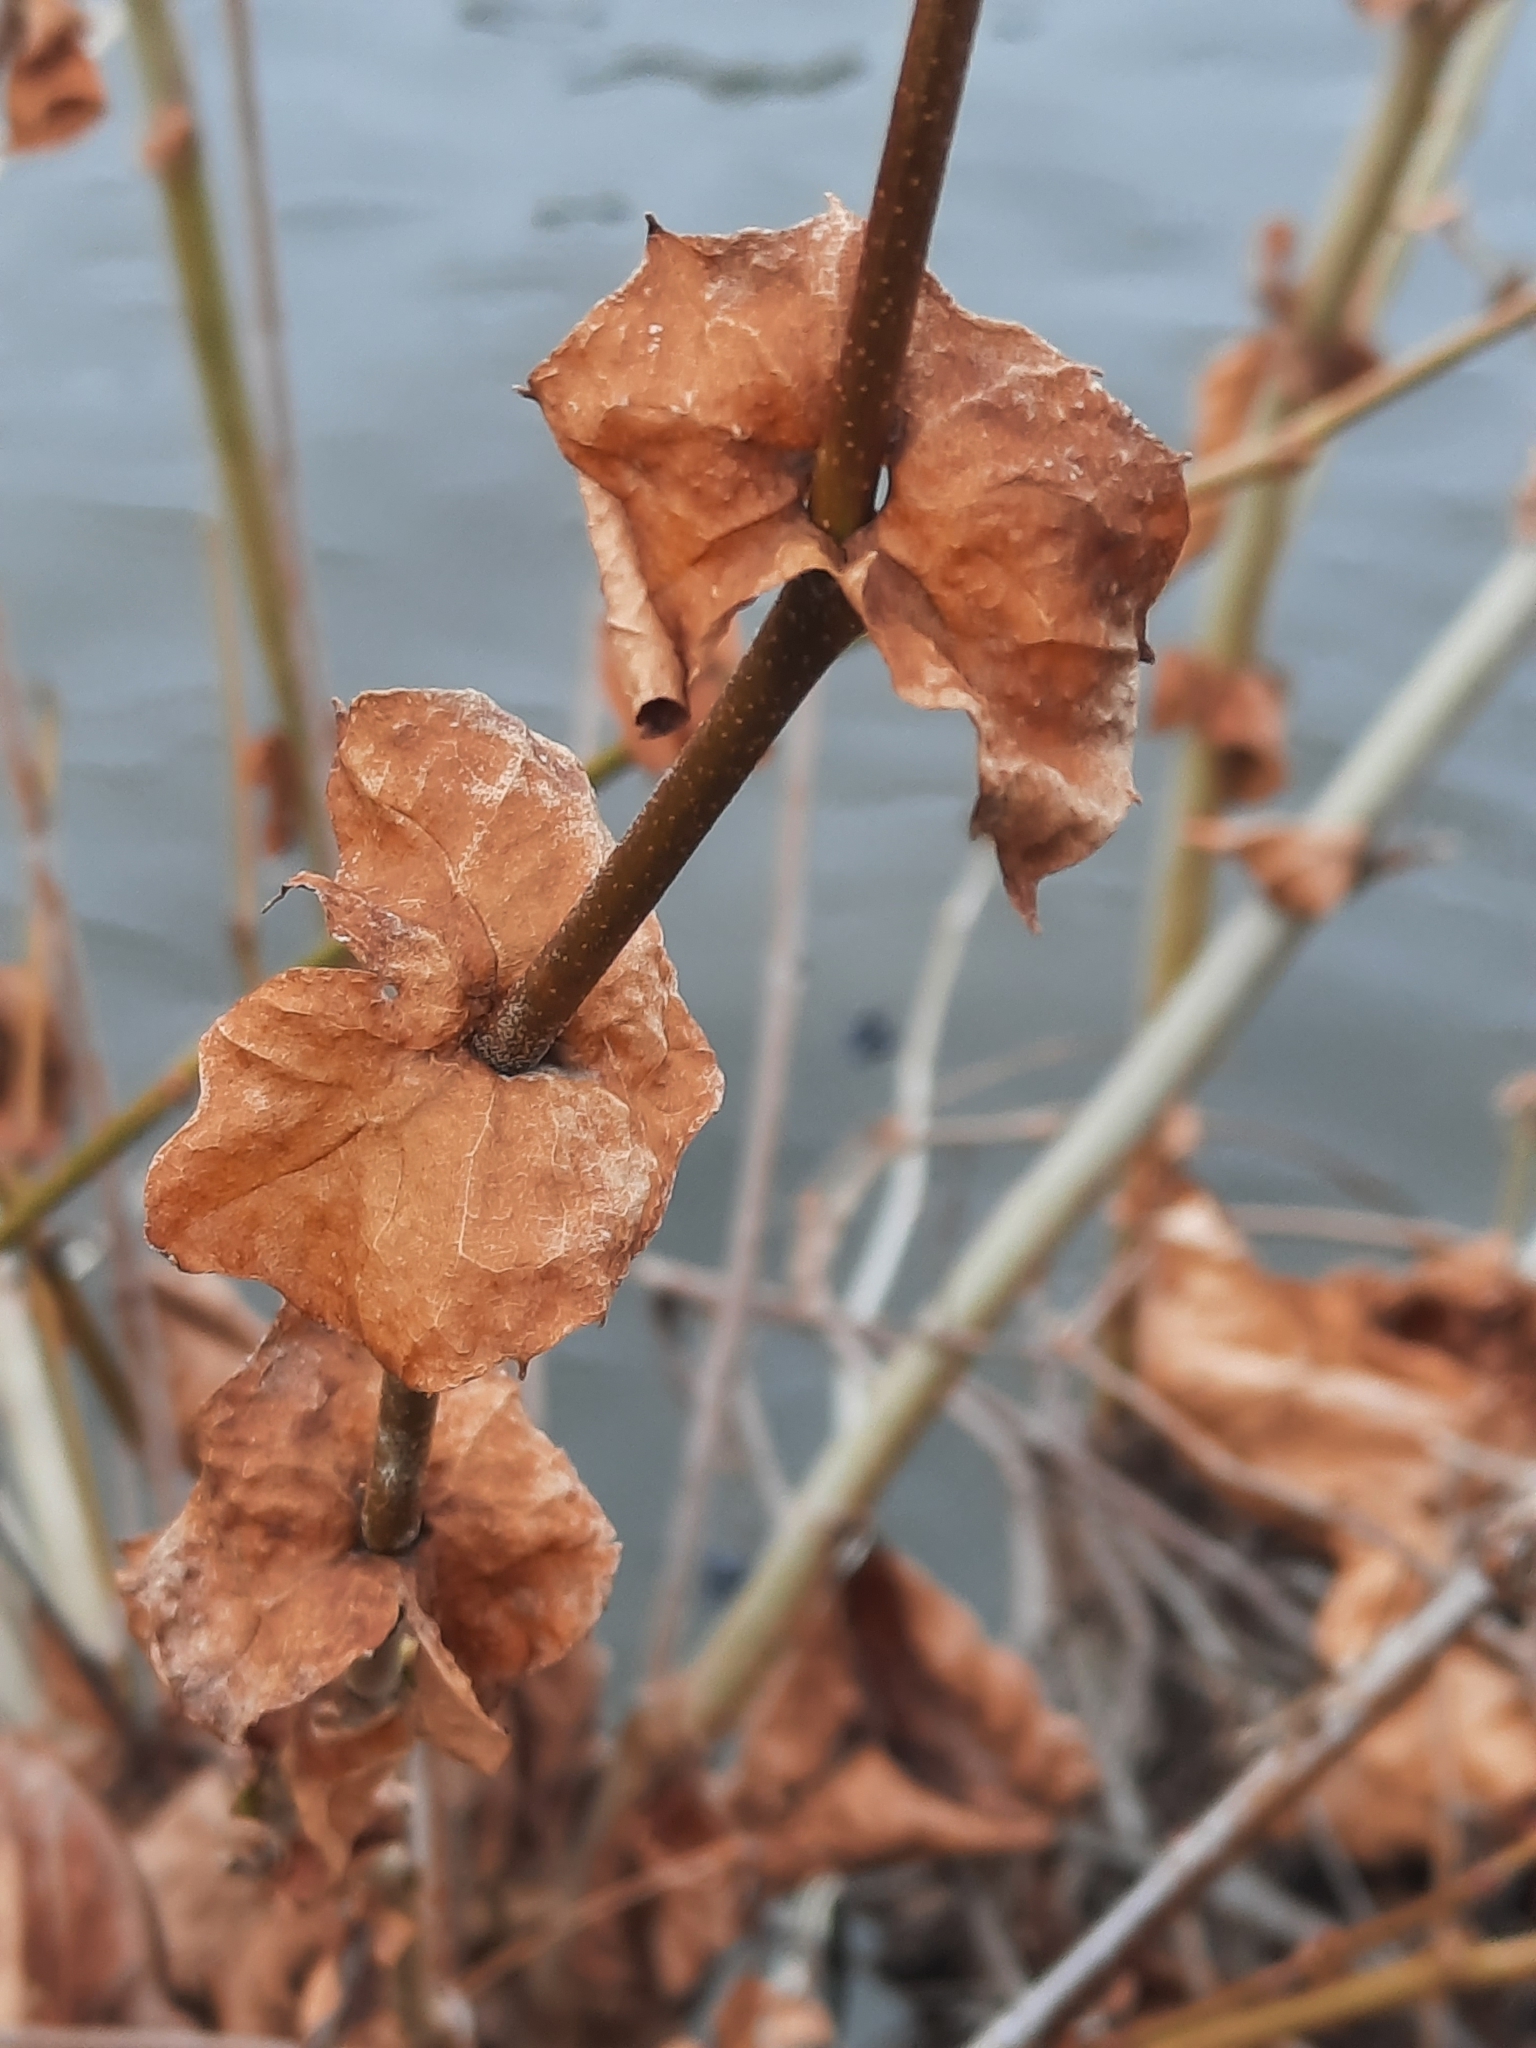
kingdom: Plantae
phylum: Tracheophyta
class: Magnoliopsida
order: Proteales
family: Platanaceae
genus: Platanus
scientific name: Platanus occidentalis
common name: American sycamore
